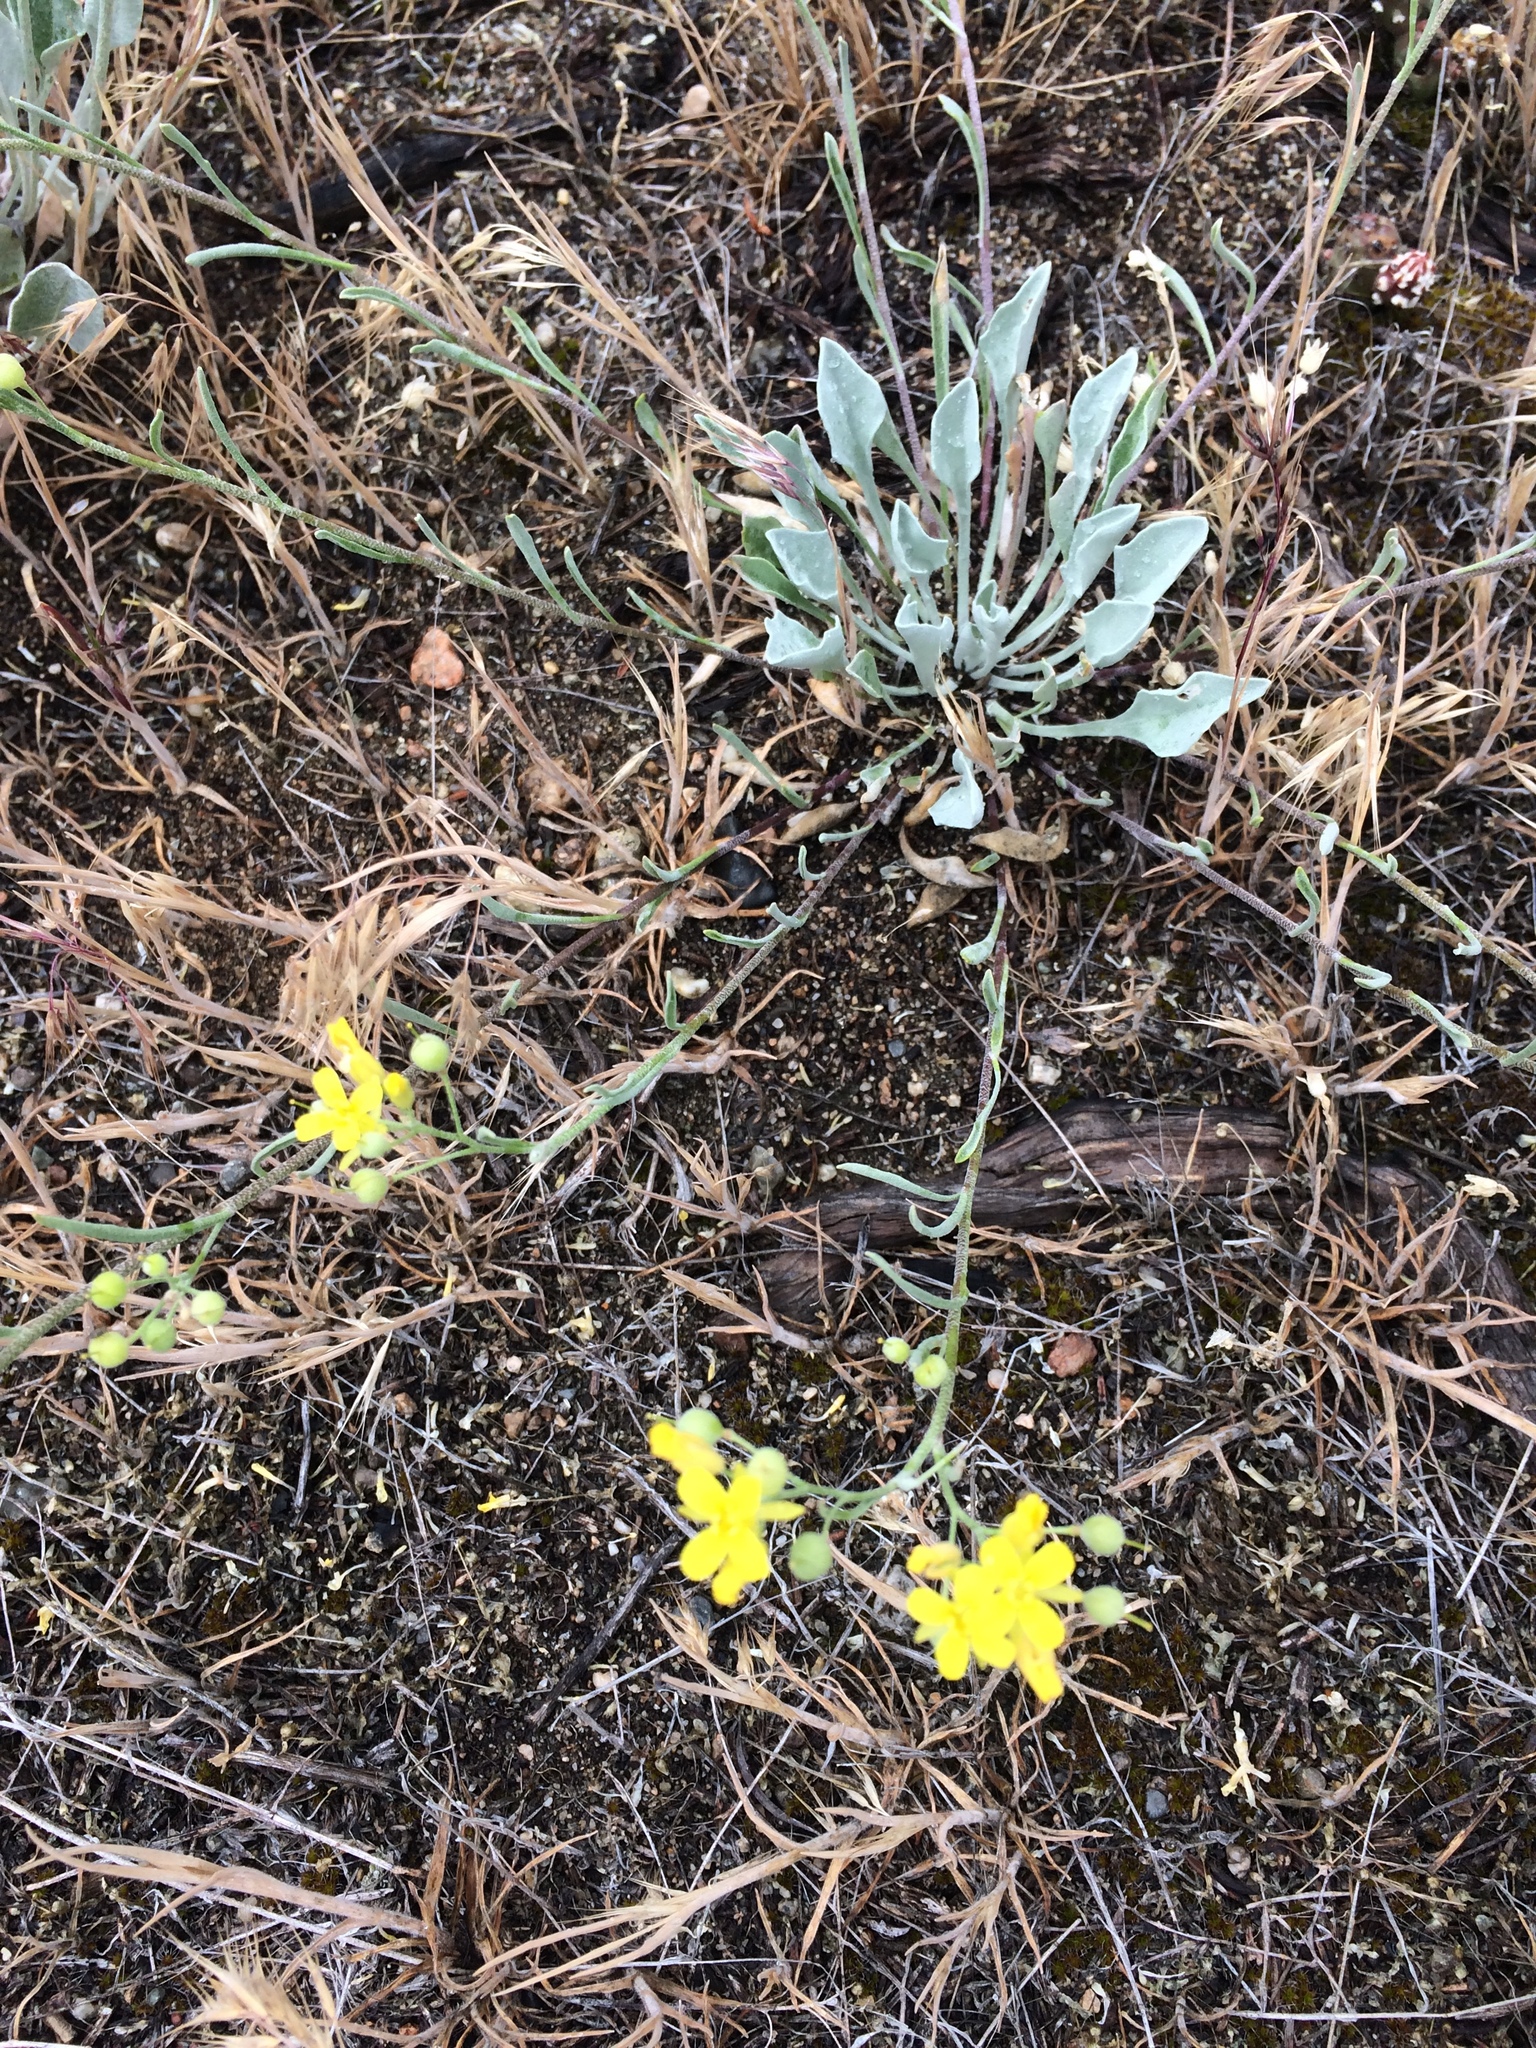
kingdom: Plantae
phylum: Tracheophyta
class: Magnoliopsida
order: Brassicales
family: Brassicaceae
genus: Physaria
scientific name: Physaria douglasii
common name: Douglas's bladderpod
